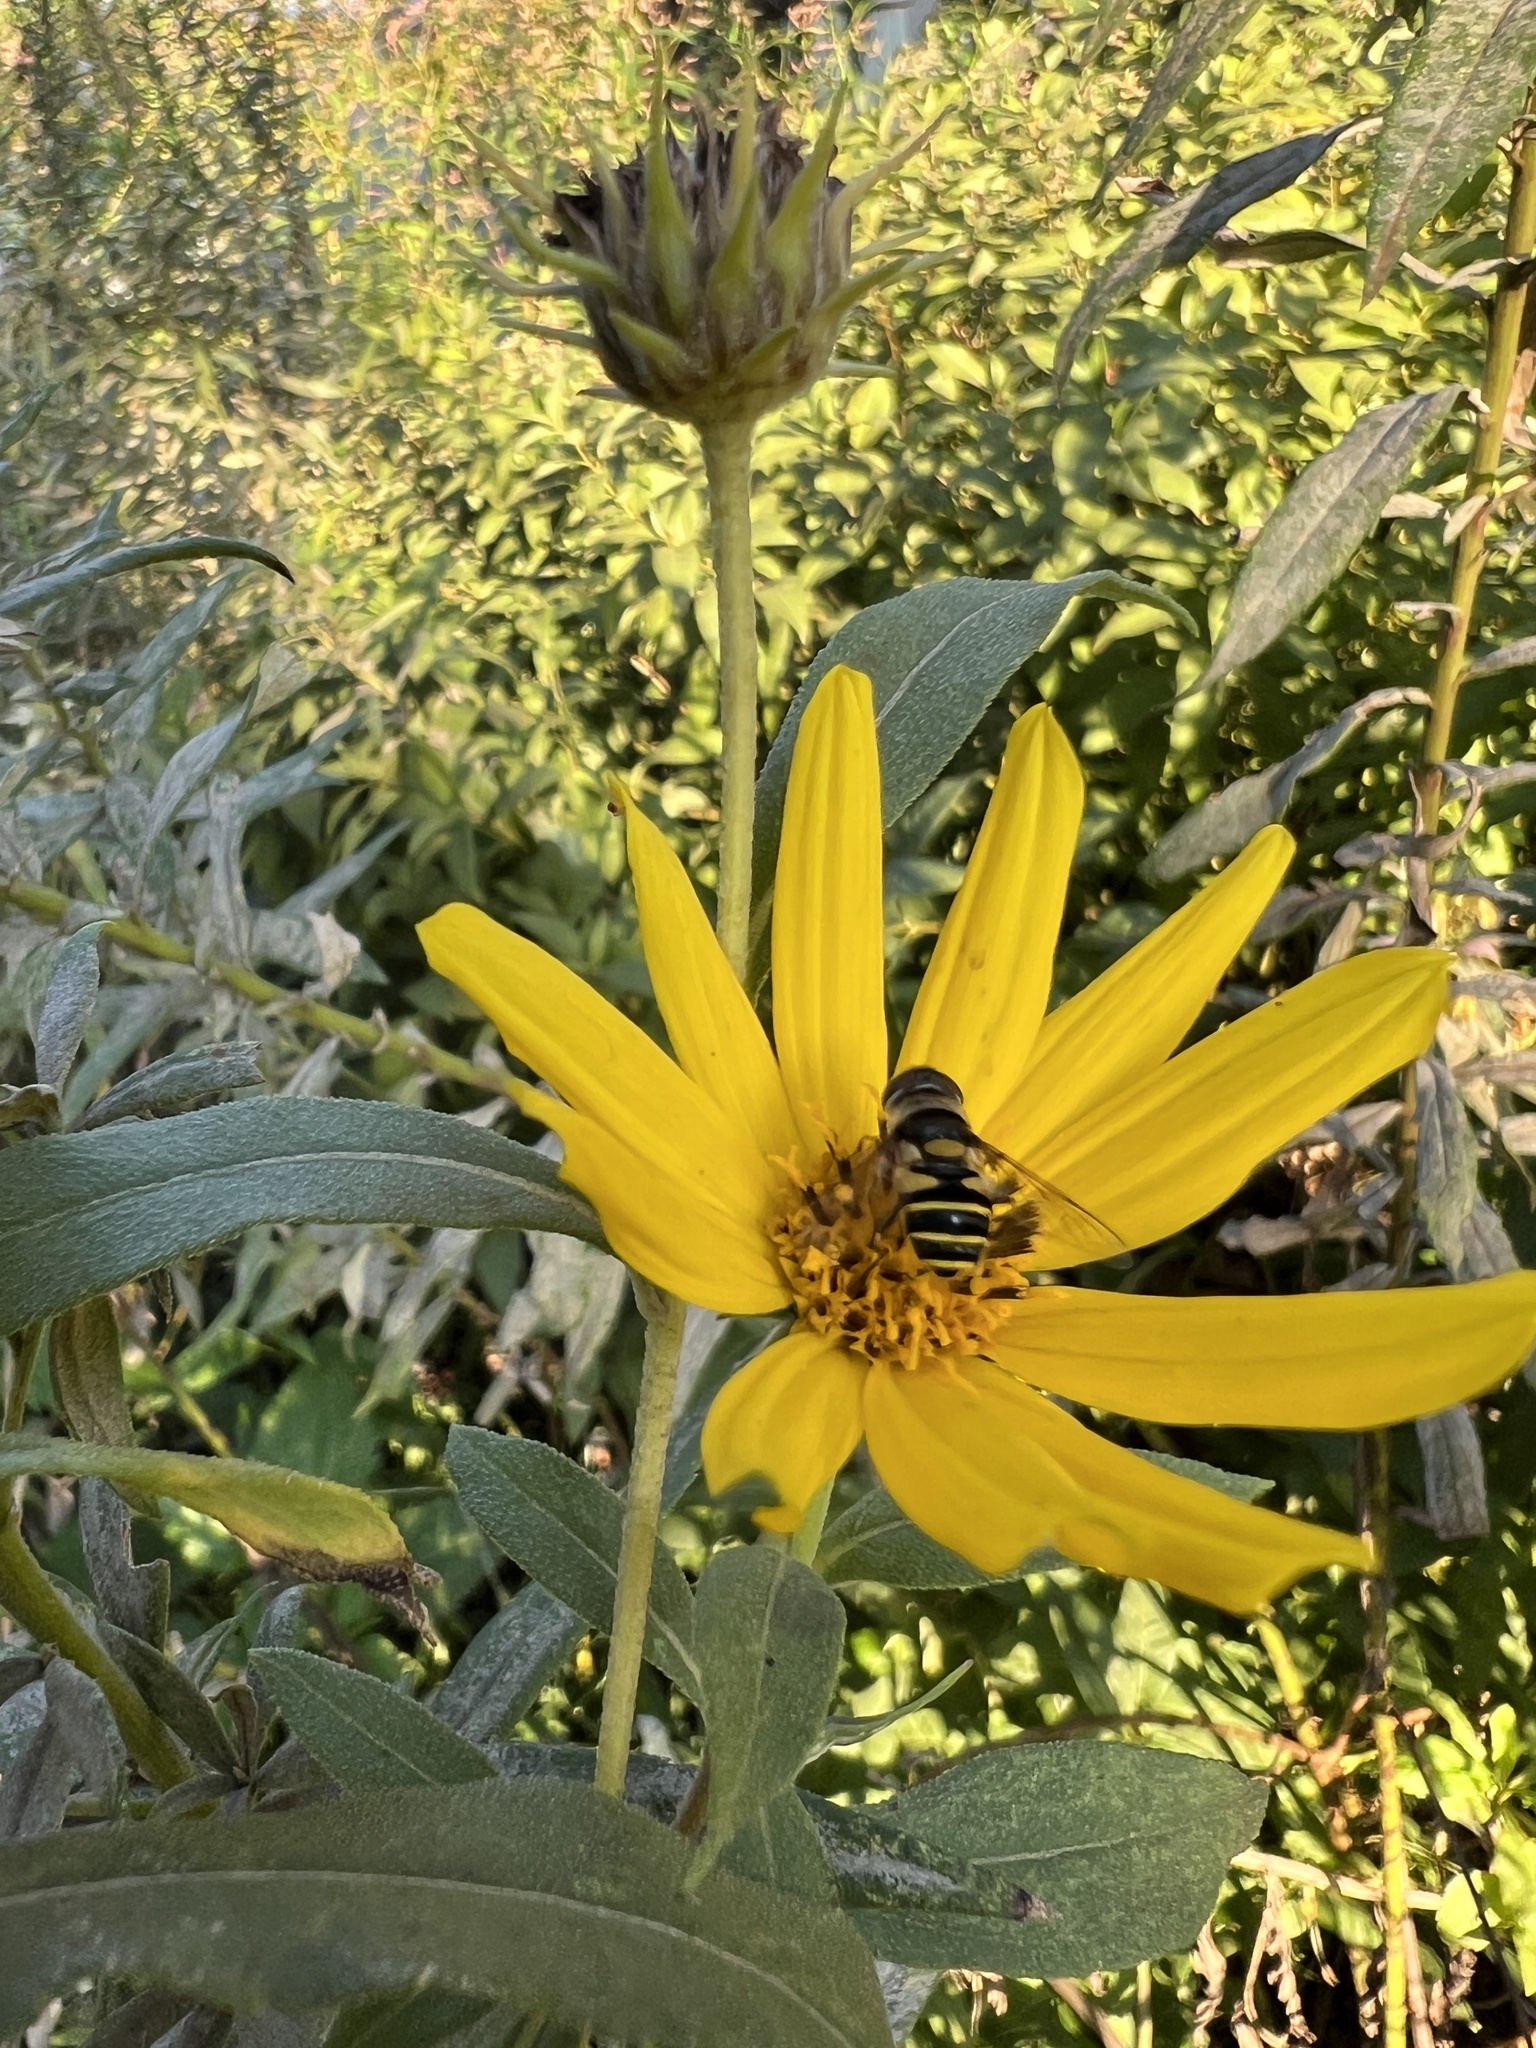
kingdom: Animalia
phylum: Arthropoda
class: Insecta
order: Diptera
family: Syrphidae
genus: Eristalis
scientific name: Eristalis transversa
